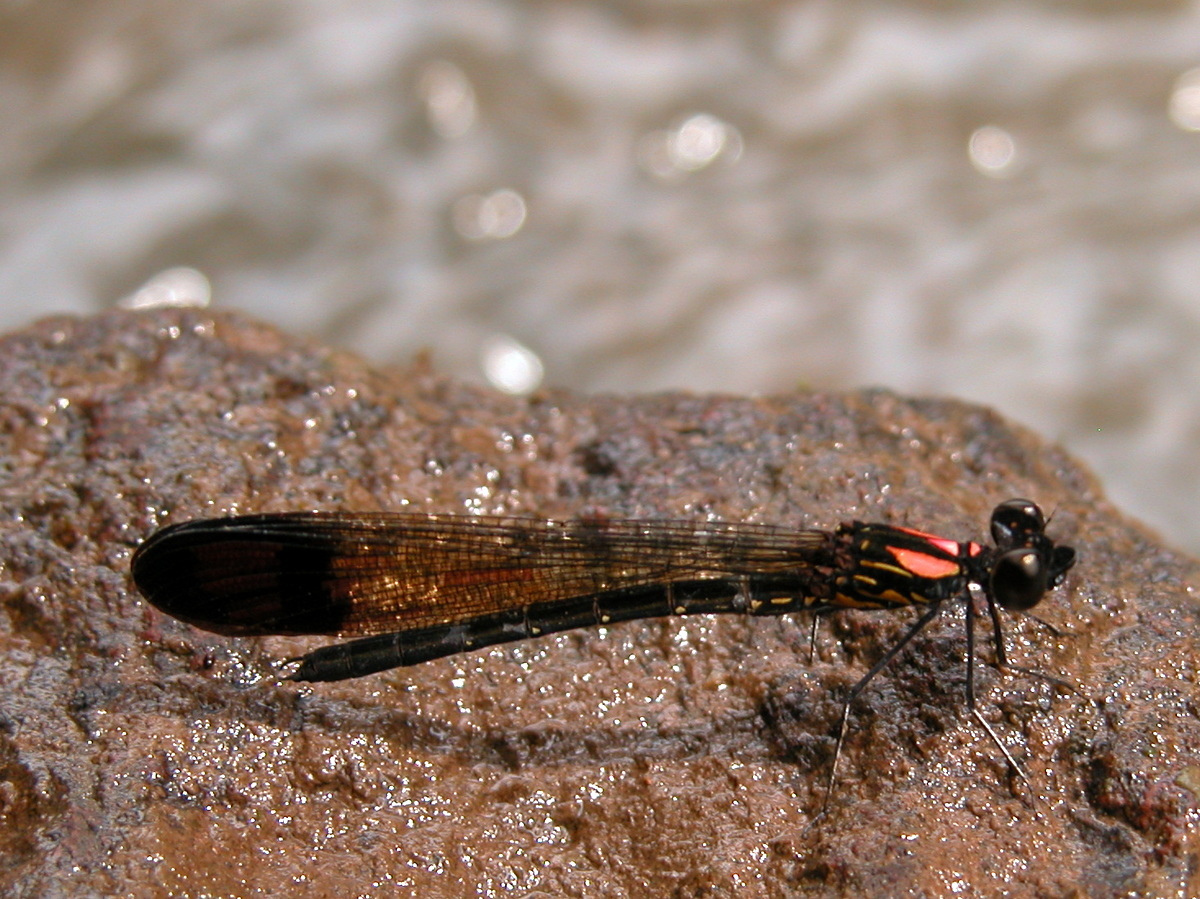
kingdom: Animalia
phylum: Arthropoda
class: Insecta
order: Odonata
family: Chlorocyphidae
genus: Heliocypha
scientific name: Heliocypha bisignata
